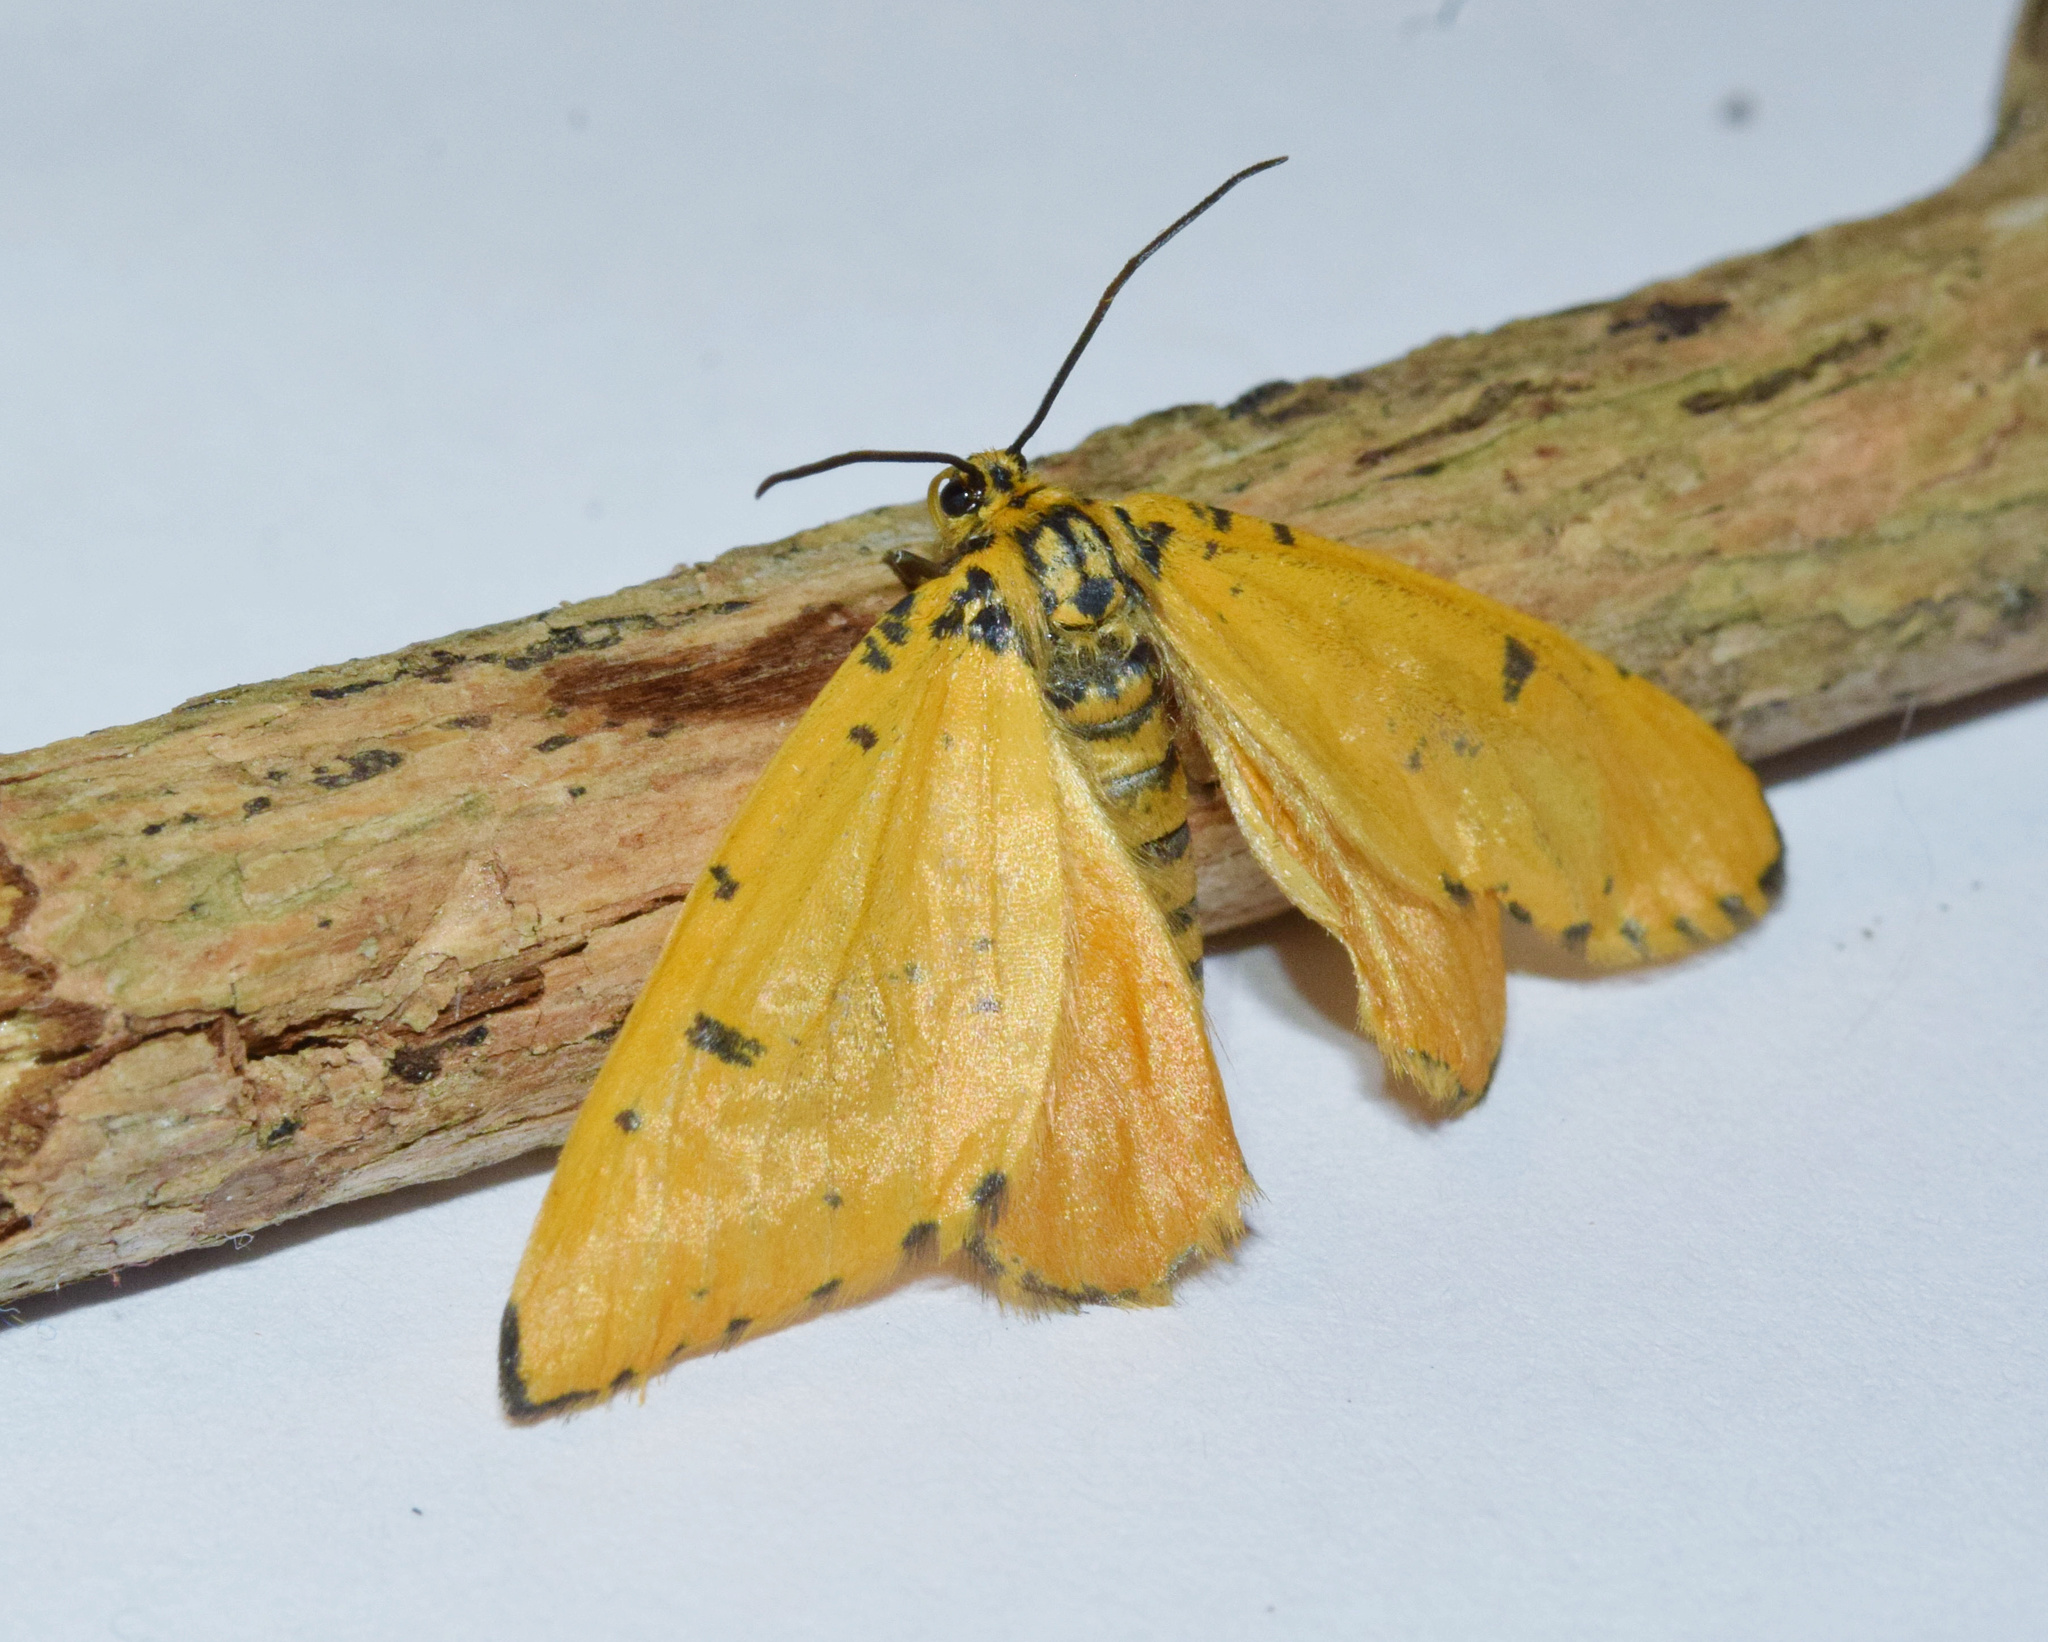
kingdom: Animalia
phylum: Arthropoda
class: Insecta
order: Lepidoptera
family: Geometridae
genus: Zerenopsis
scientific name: Zerenopsis geometrina
